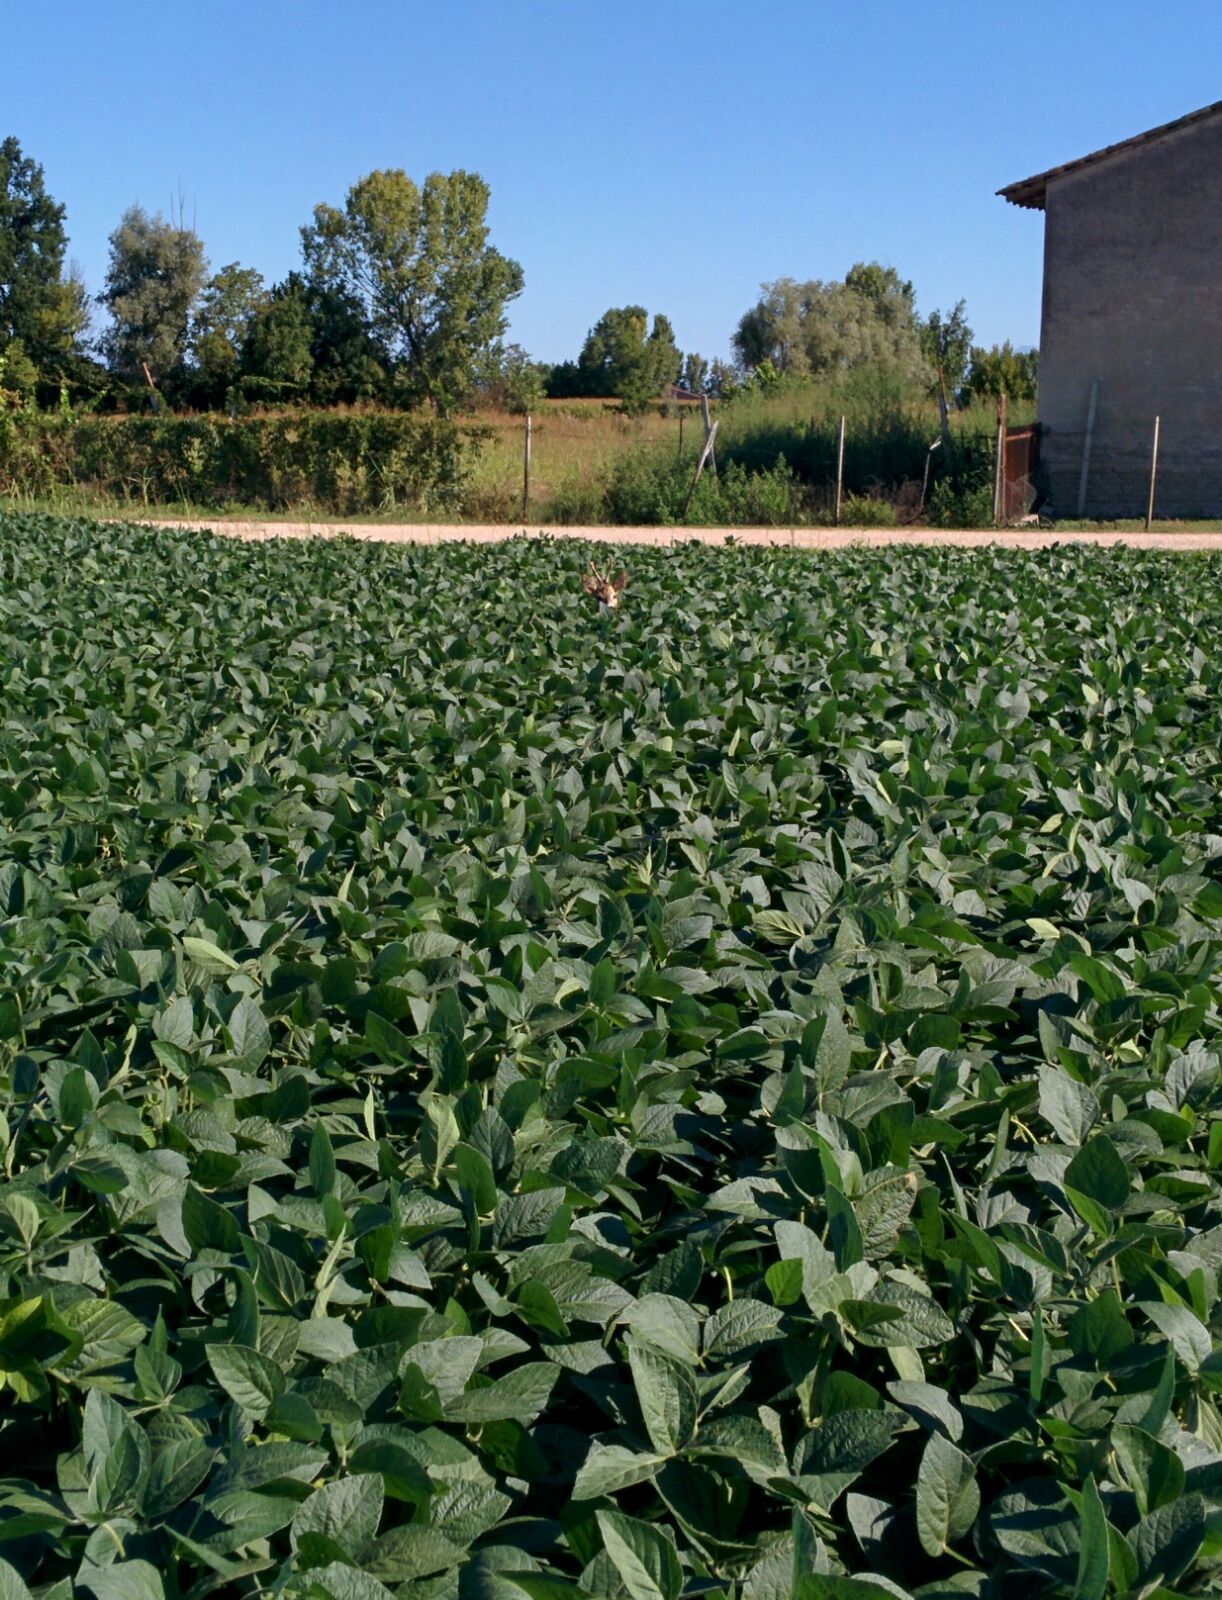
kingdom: Animalia
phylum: Chordata
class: Mammalia
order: Artiodactyla
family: Cervidae
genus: Capreolus
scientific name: Capreolus capreolus
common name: Western roe deer
